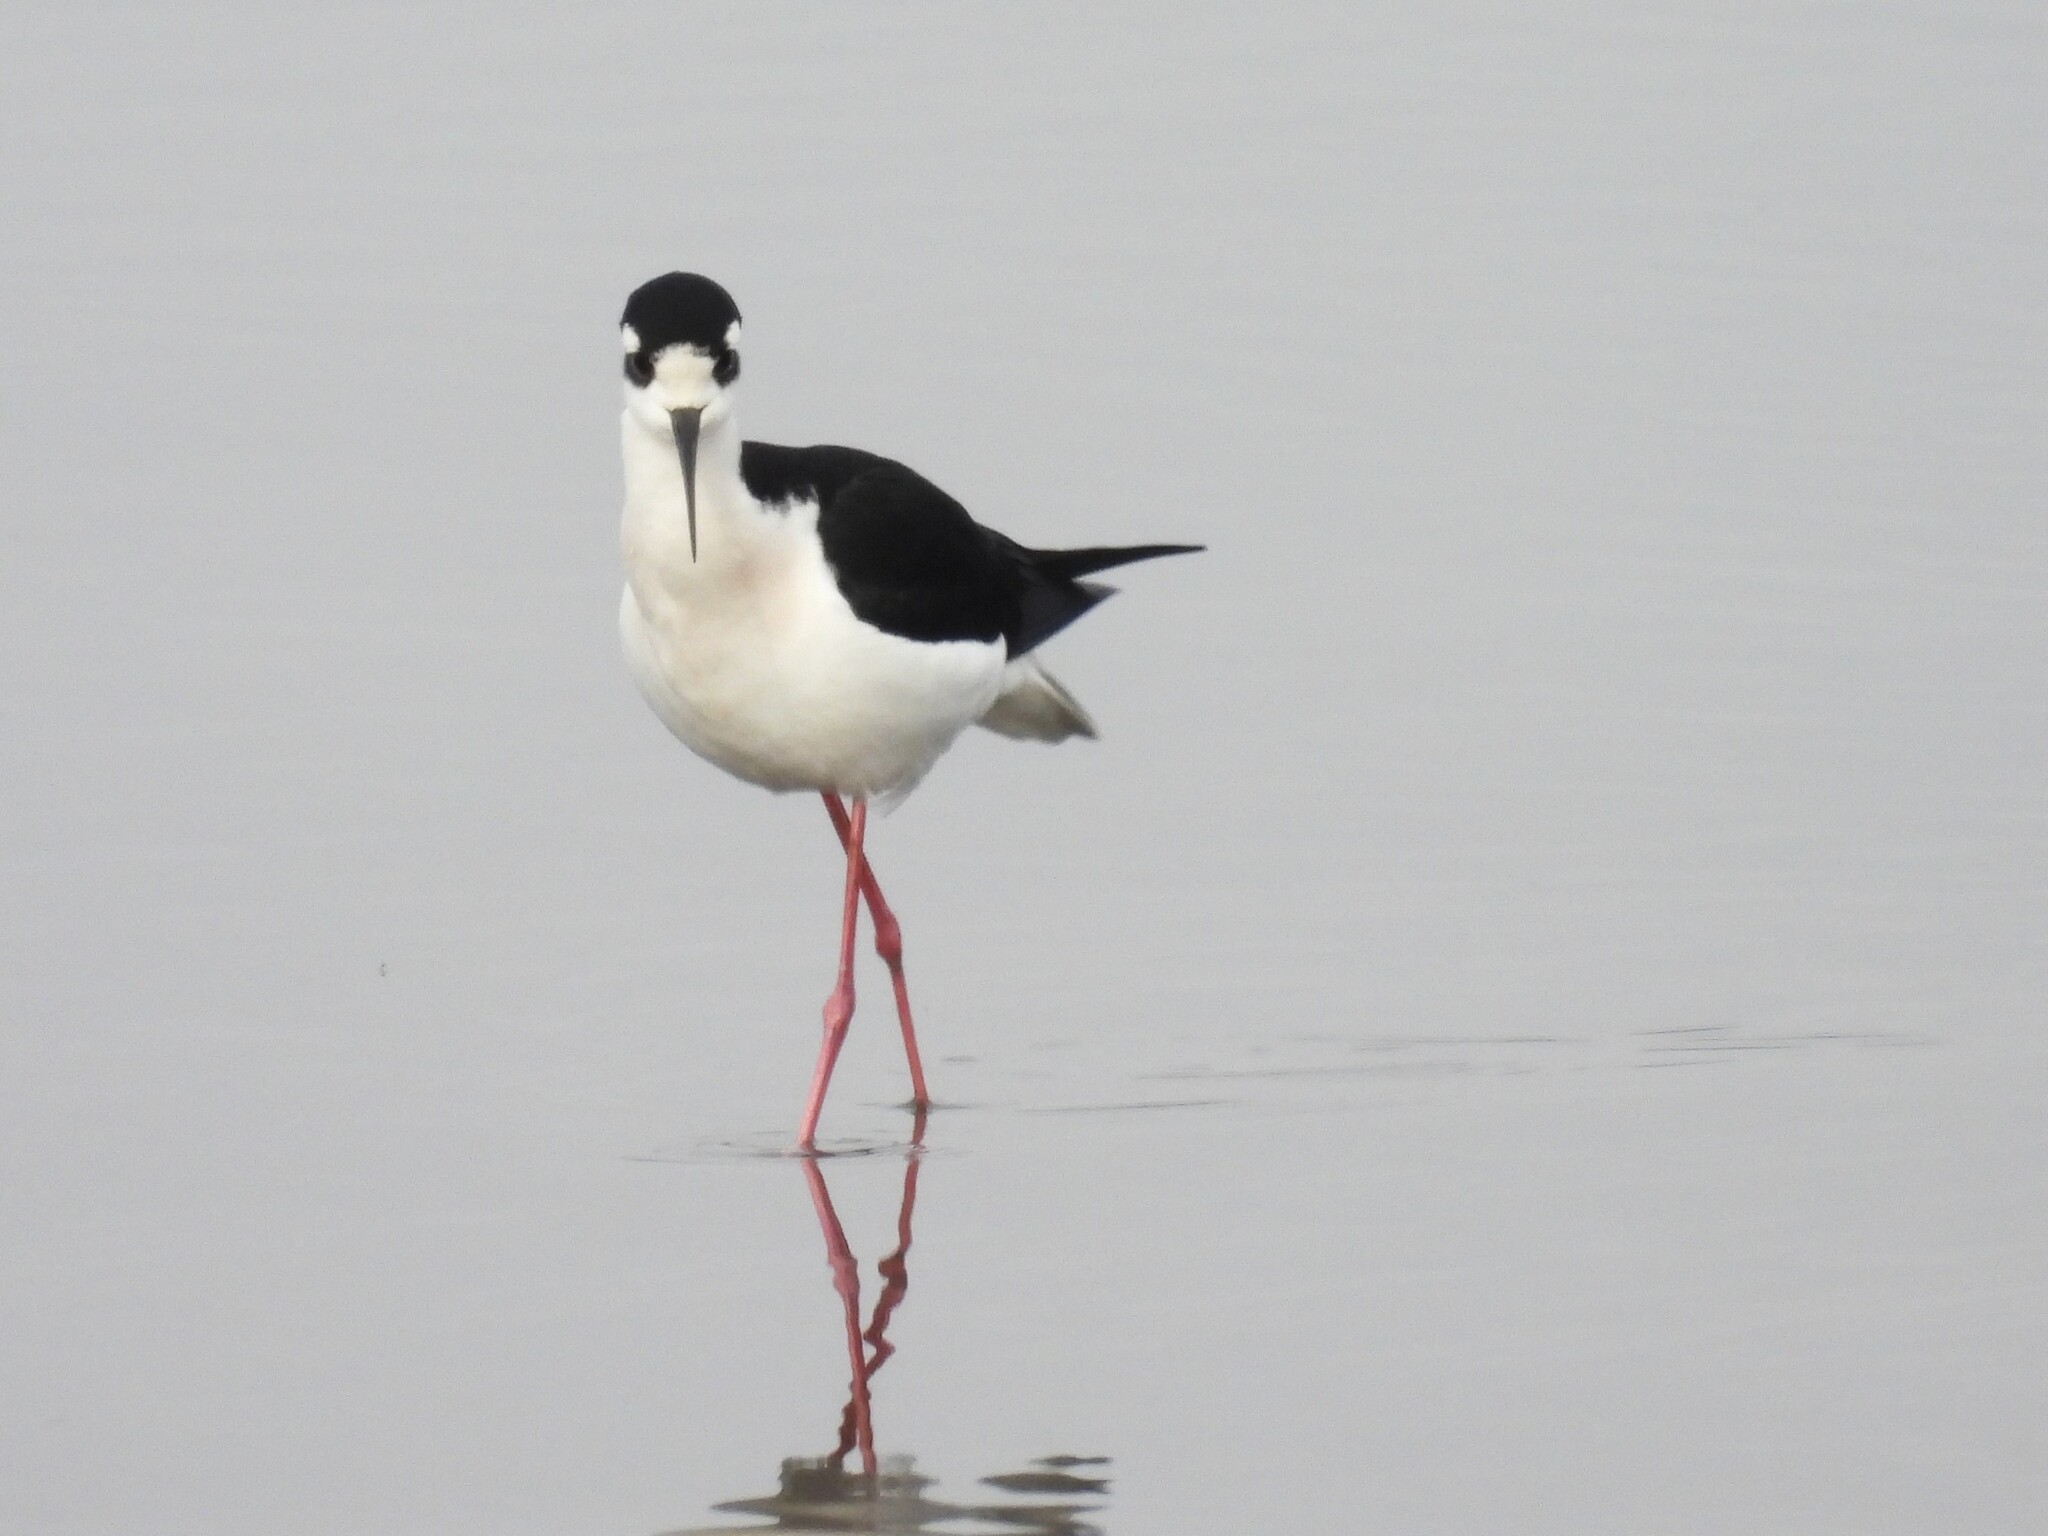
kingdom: Animalia
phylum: Chordata
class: Aves
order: Charadriiformes
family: Recurvirostridae
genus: Himantopus
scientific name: Himantopus mexicanus
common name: Black-necked stilt
